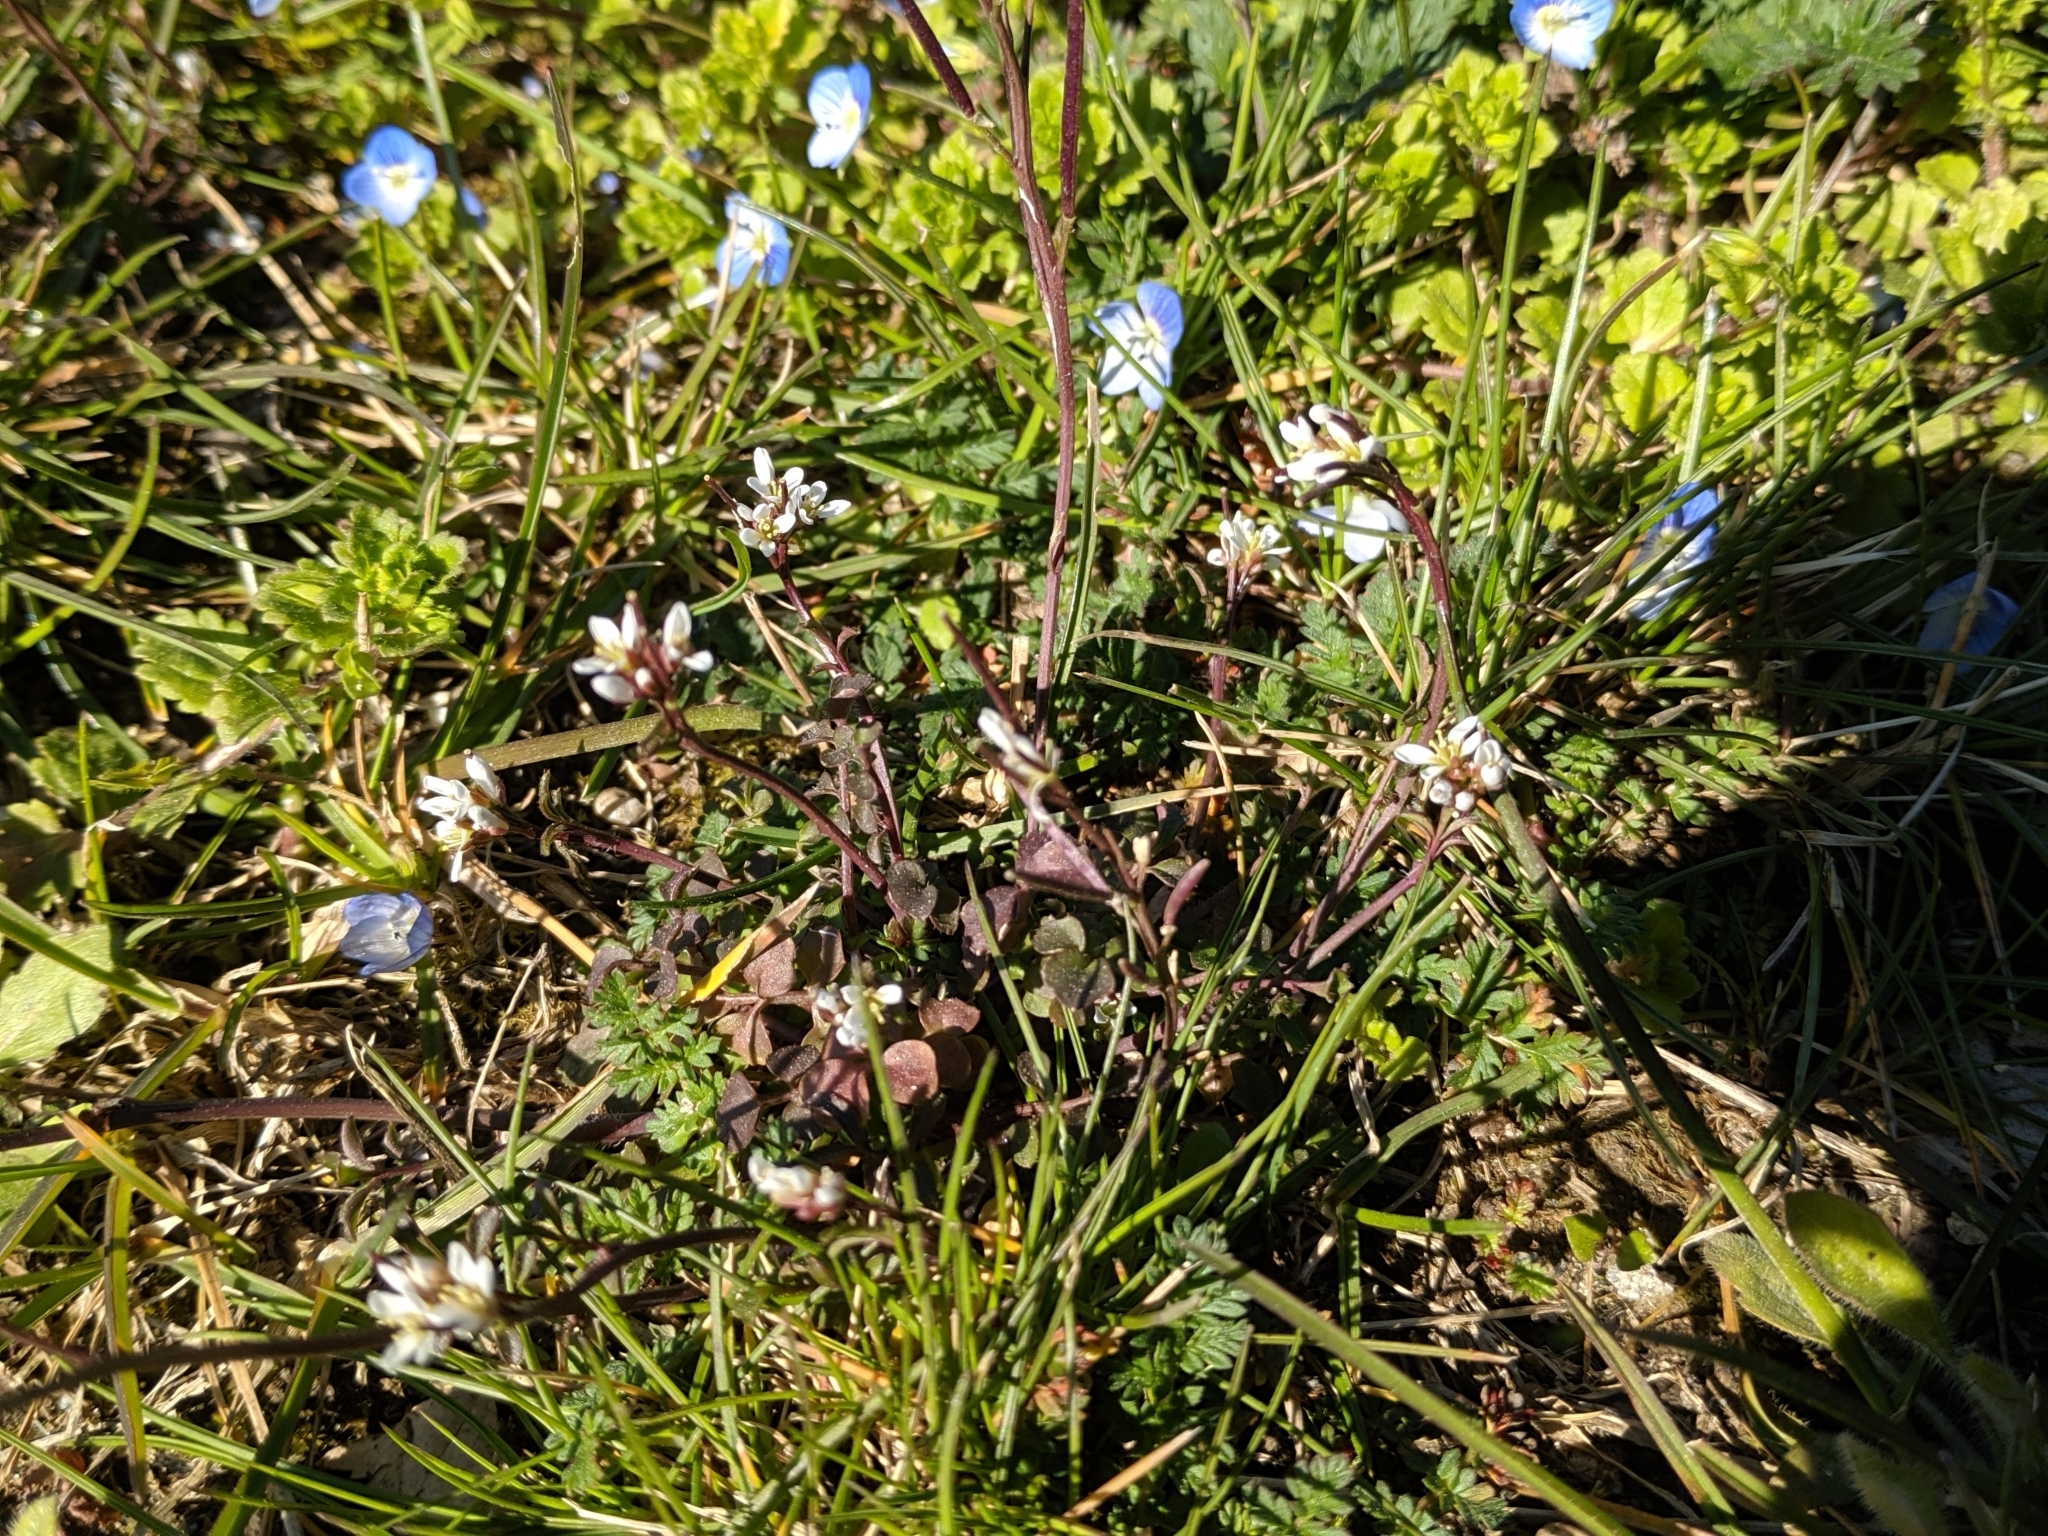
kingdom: Plantae
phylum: Tracheophyta
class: Magnoliopsida
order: Brassicales
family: Brassicaceae
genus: Cardamine
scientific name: Cardamine hirsuta
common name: Hairy bittercress
